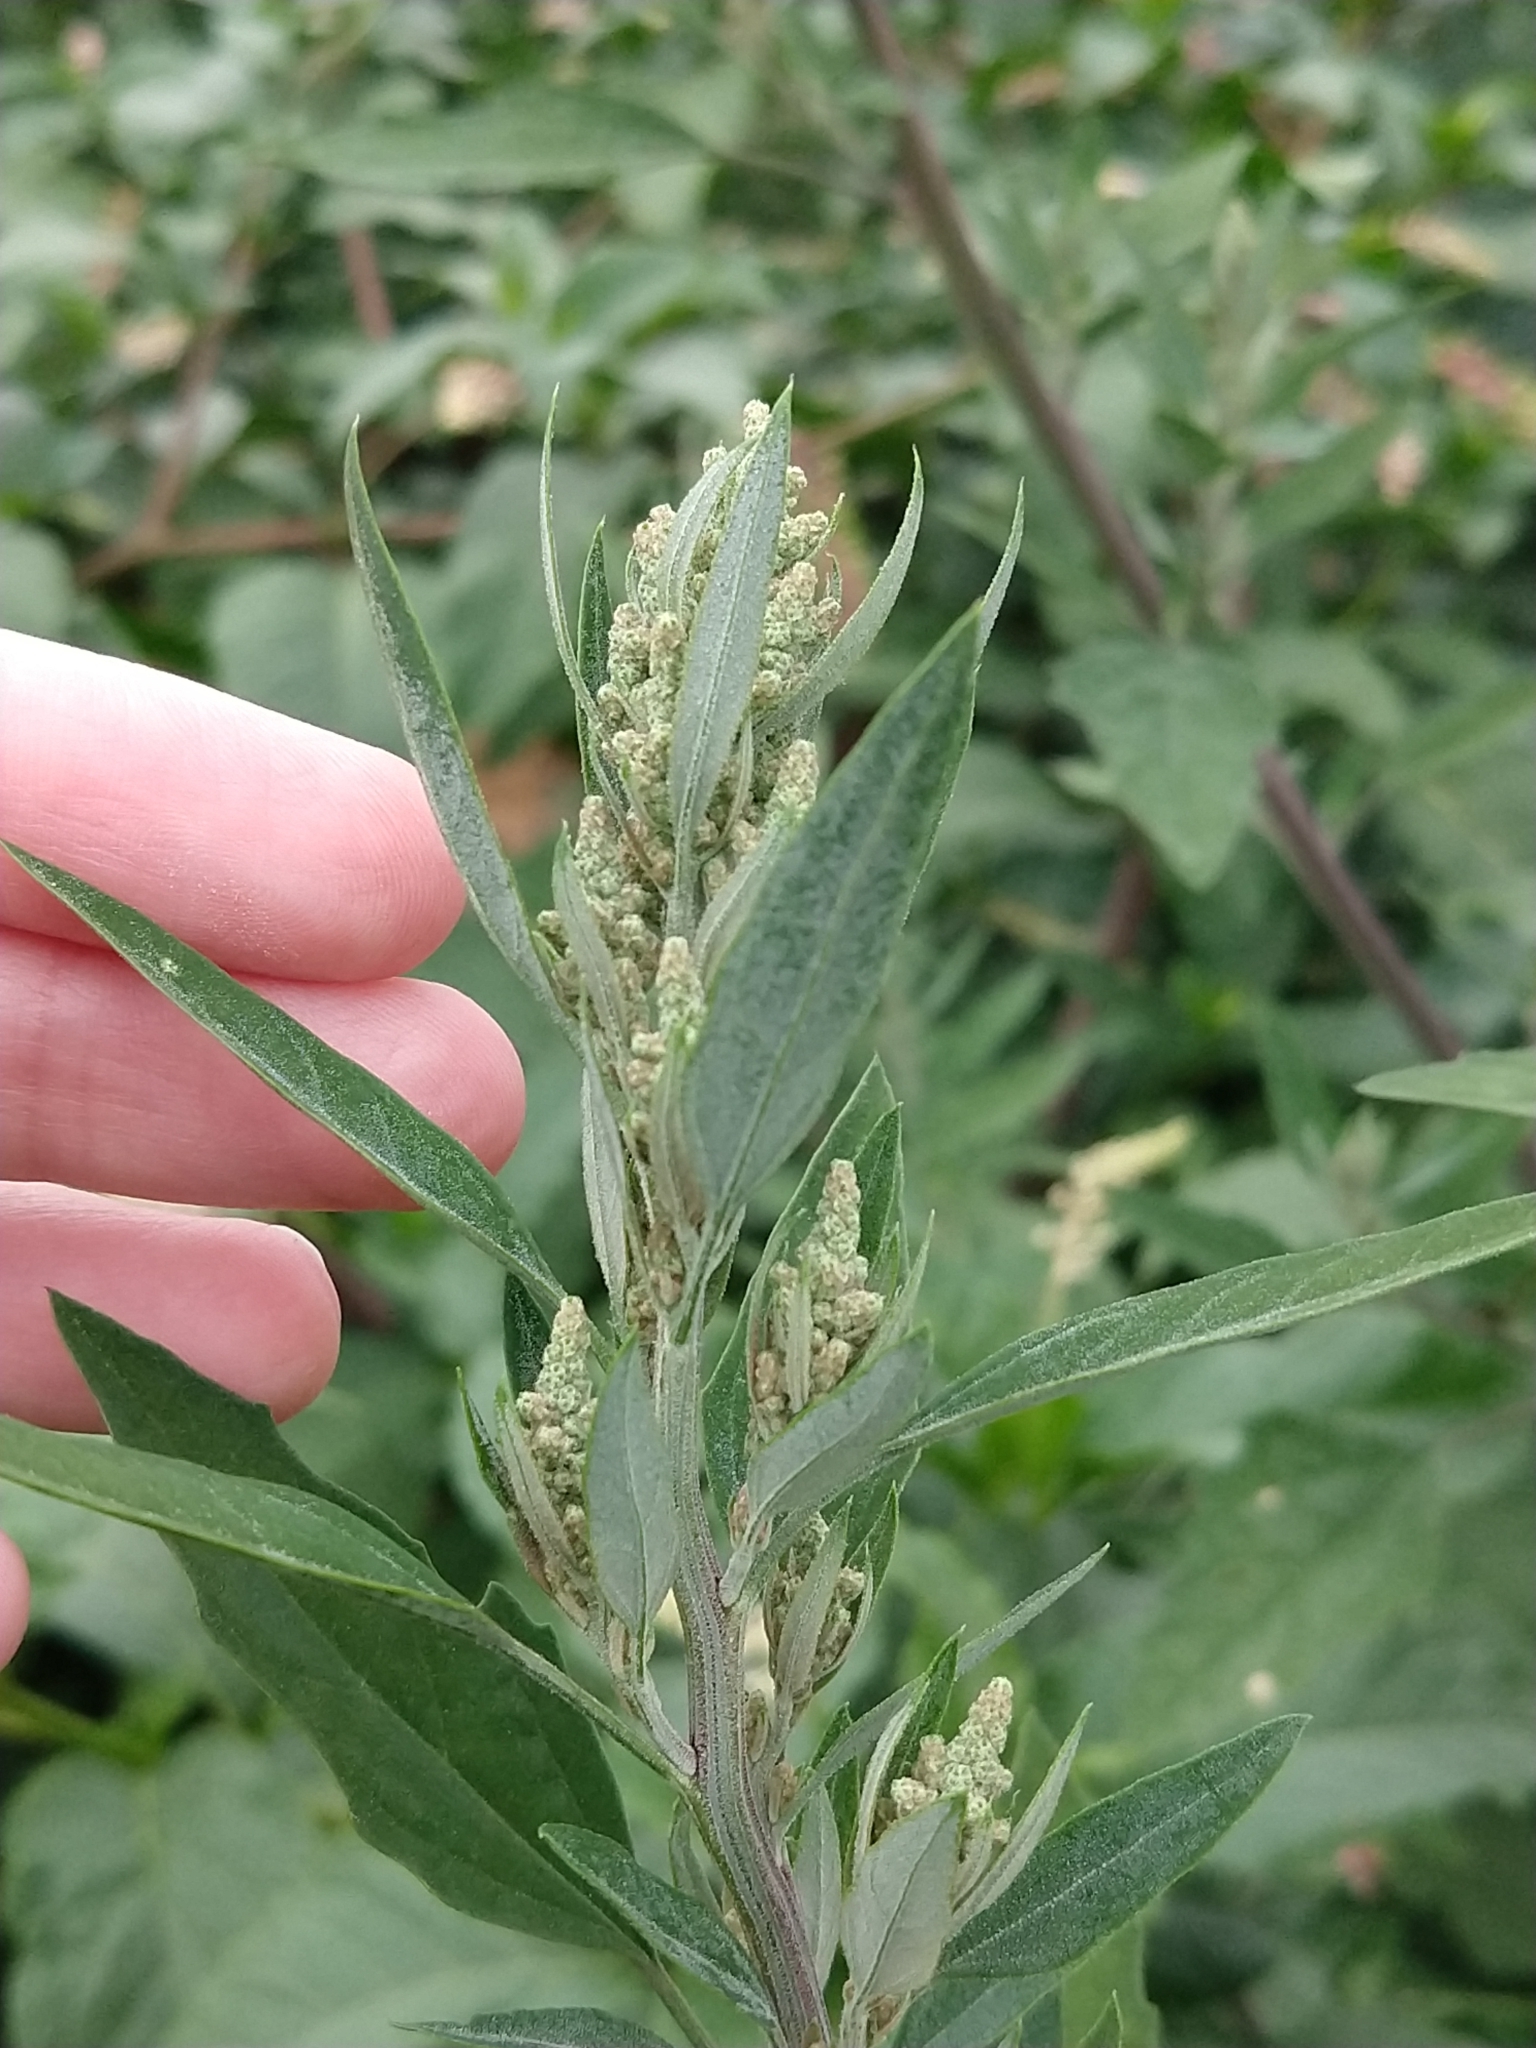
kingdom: Plantae
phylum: Tracheophyta
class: Magnoliopsida
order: Caryophyllales
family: Amaranthaceae
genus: Chenopodium
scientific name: Chenopodium album
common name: Fat-hen
